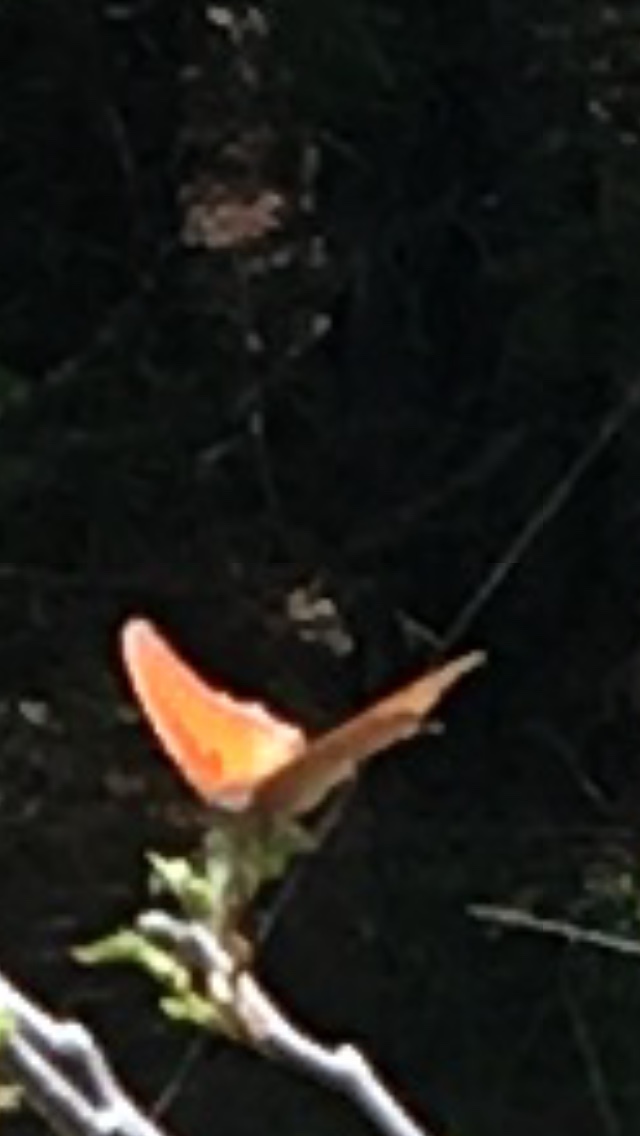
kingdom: Animalia
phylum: Arthropoda
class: Insecta
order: Lepidoptera
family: Nymphalidae
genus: Anaea
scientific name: Anaea andria
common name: Goatweed leafwing
